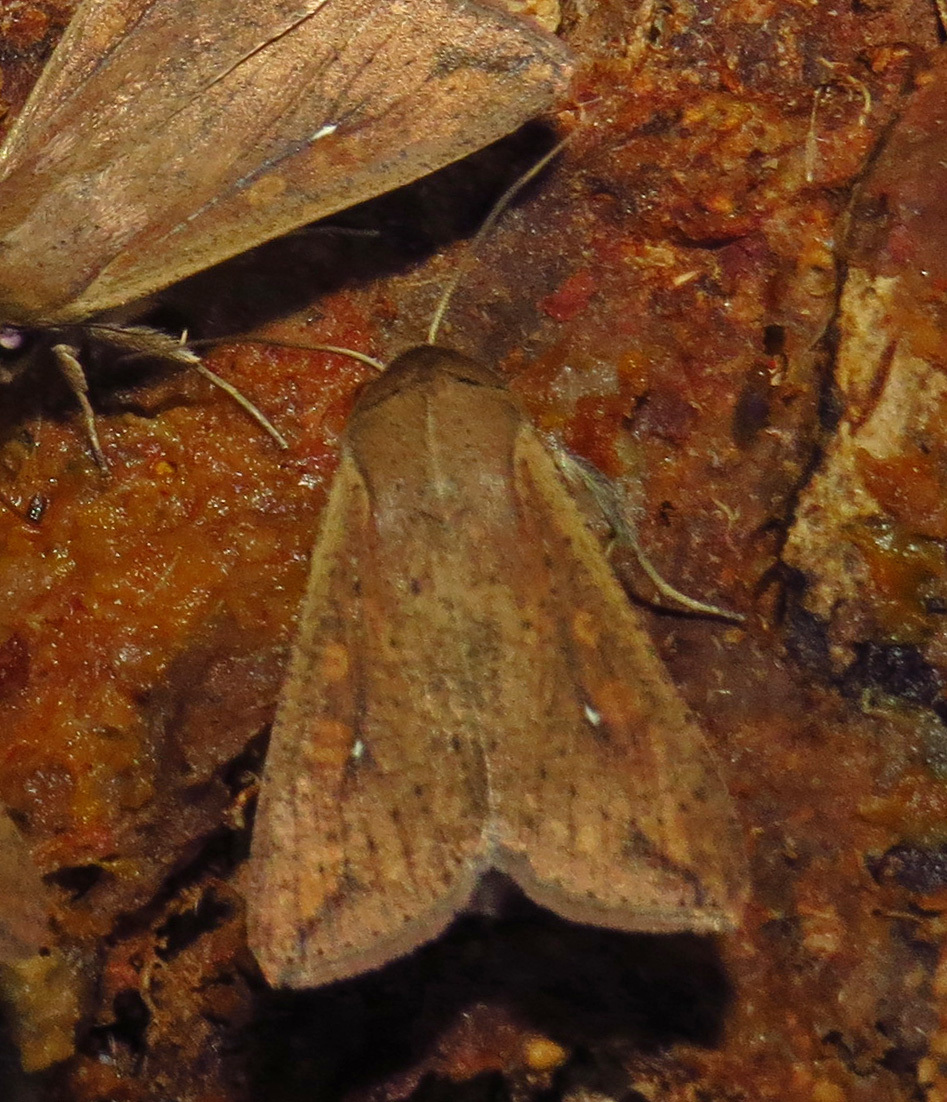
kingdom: Animalia
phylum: Arthropoda
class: Insecta
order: Lepidoptera
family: Noctuidae
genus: Mythimna
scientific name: Mythimna unipuncta
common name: White-speck
